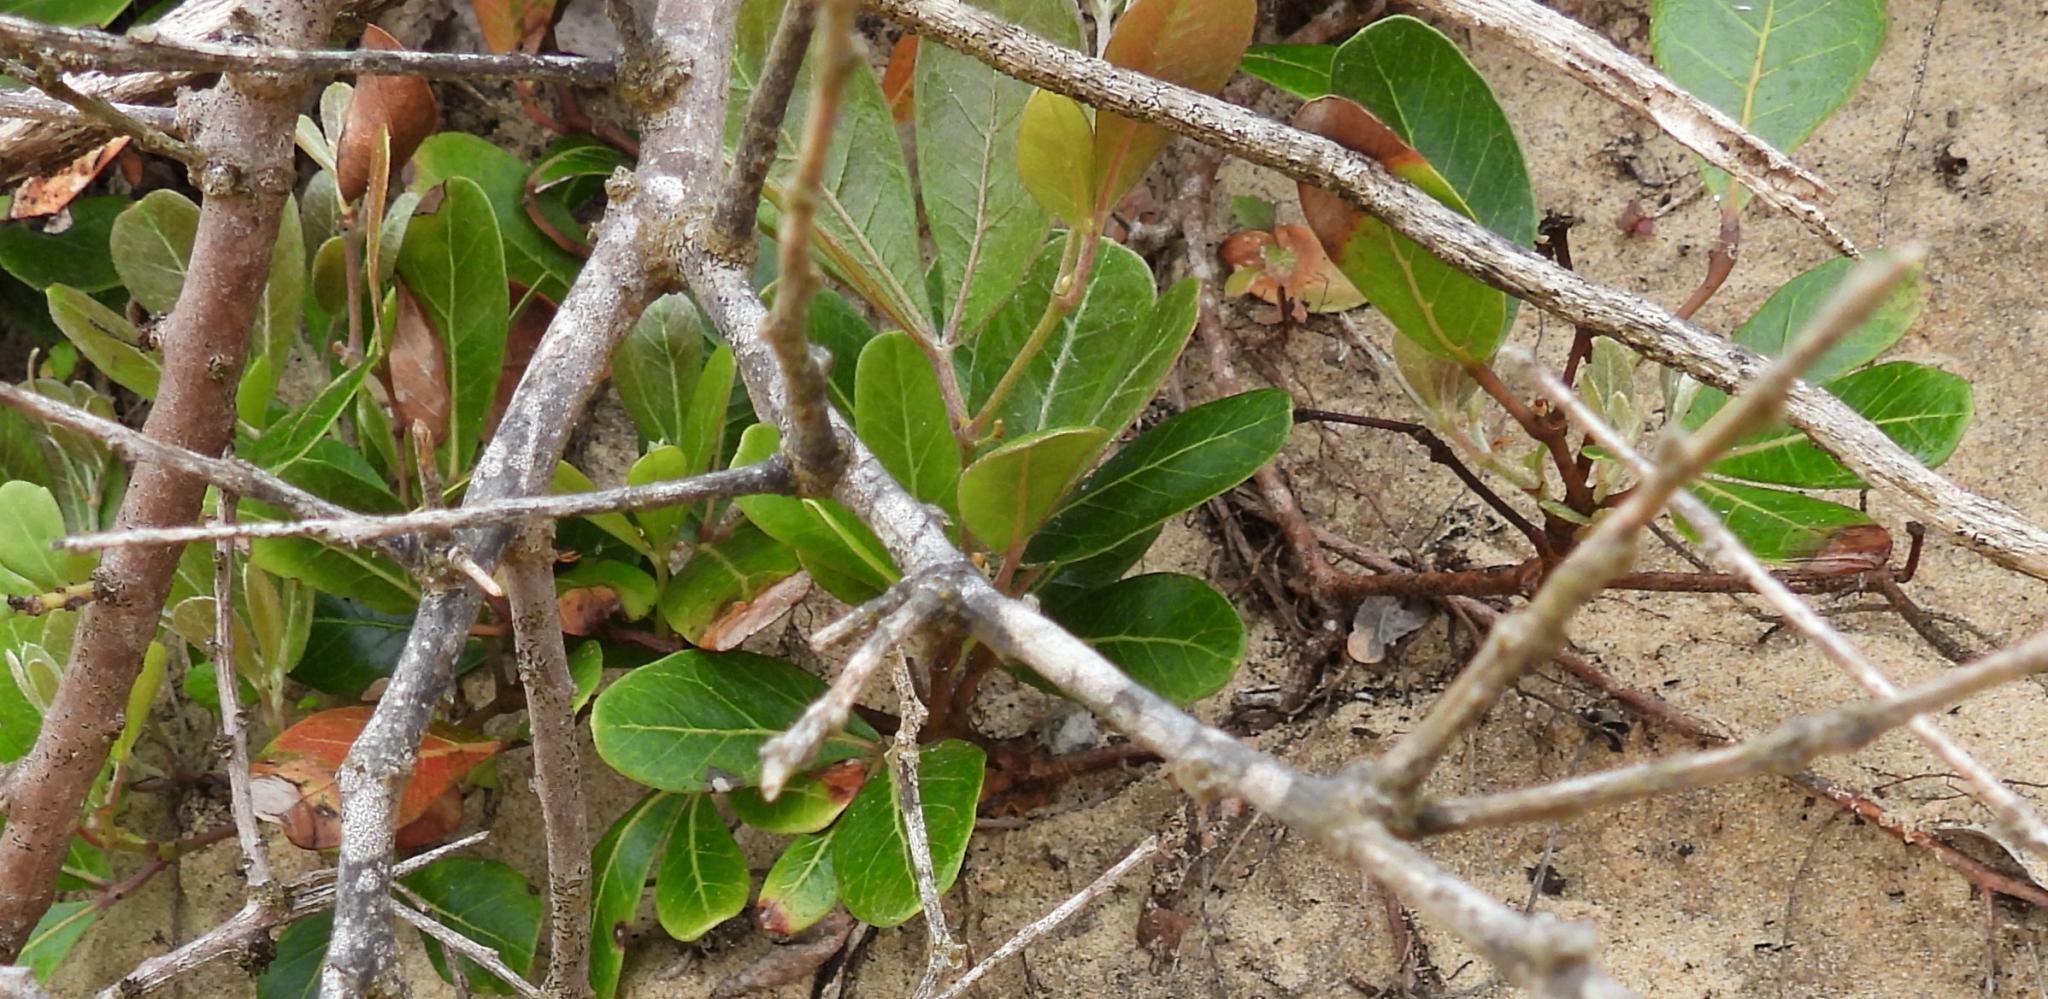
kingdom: Plantae
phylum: Tracheophyta
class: Magnoliopsida
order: Vitales
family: Vitaceae
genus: Rhoicissus
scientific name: Rhoicissus digitata
